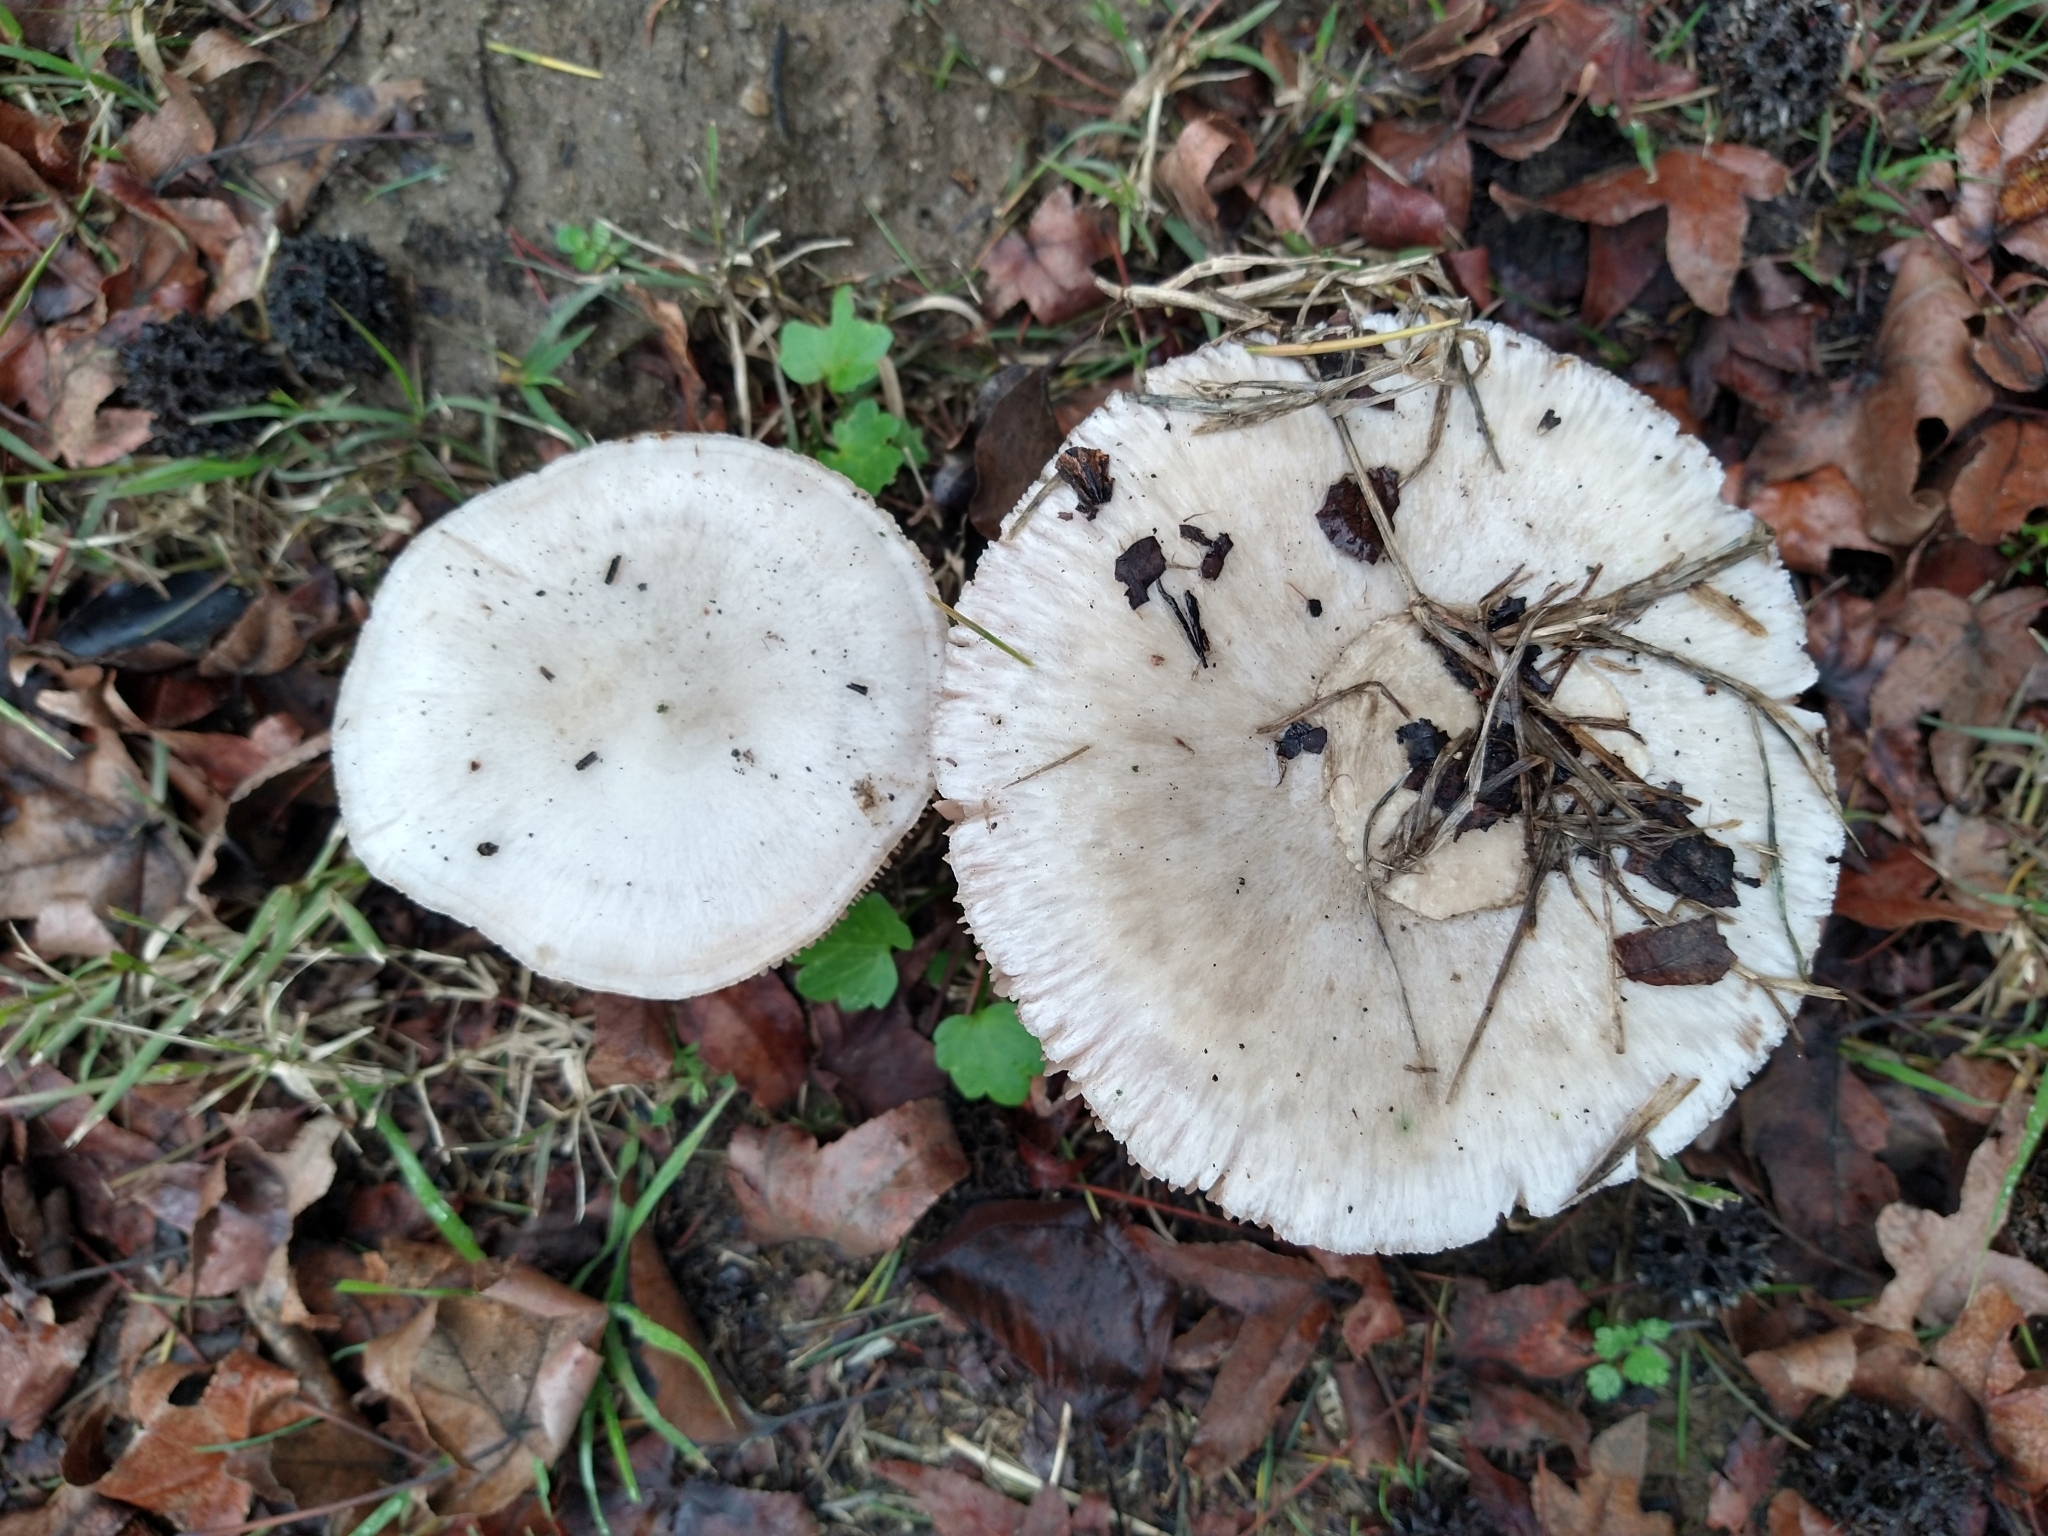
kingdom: Fungi
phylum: Basidiomycota
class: Agaricomycetes
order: Agaricales
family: Pluteaceae
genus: Volvopluteus
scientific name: Volvopluteus gloiocephalus
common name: Stubble rosegill
